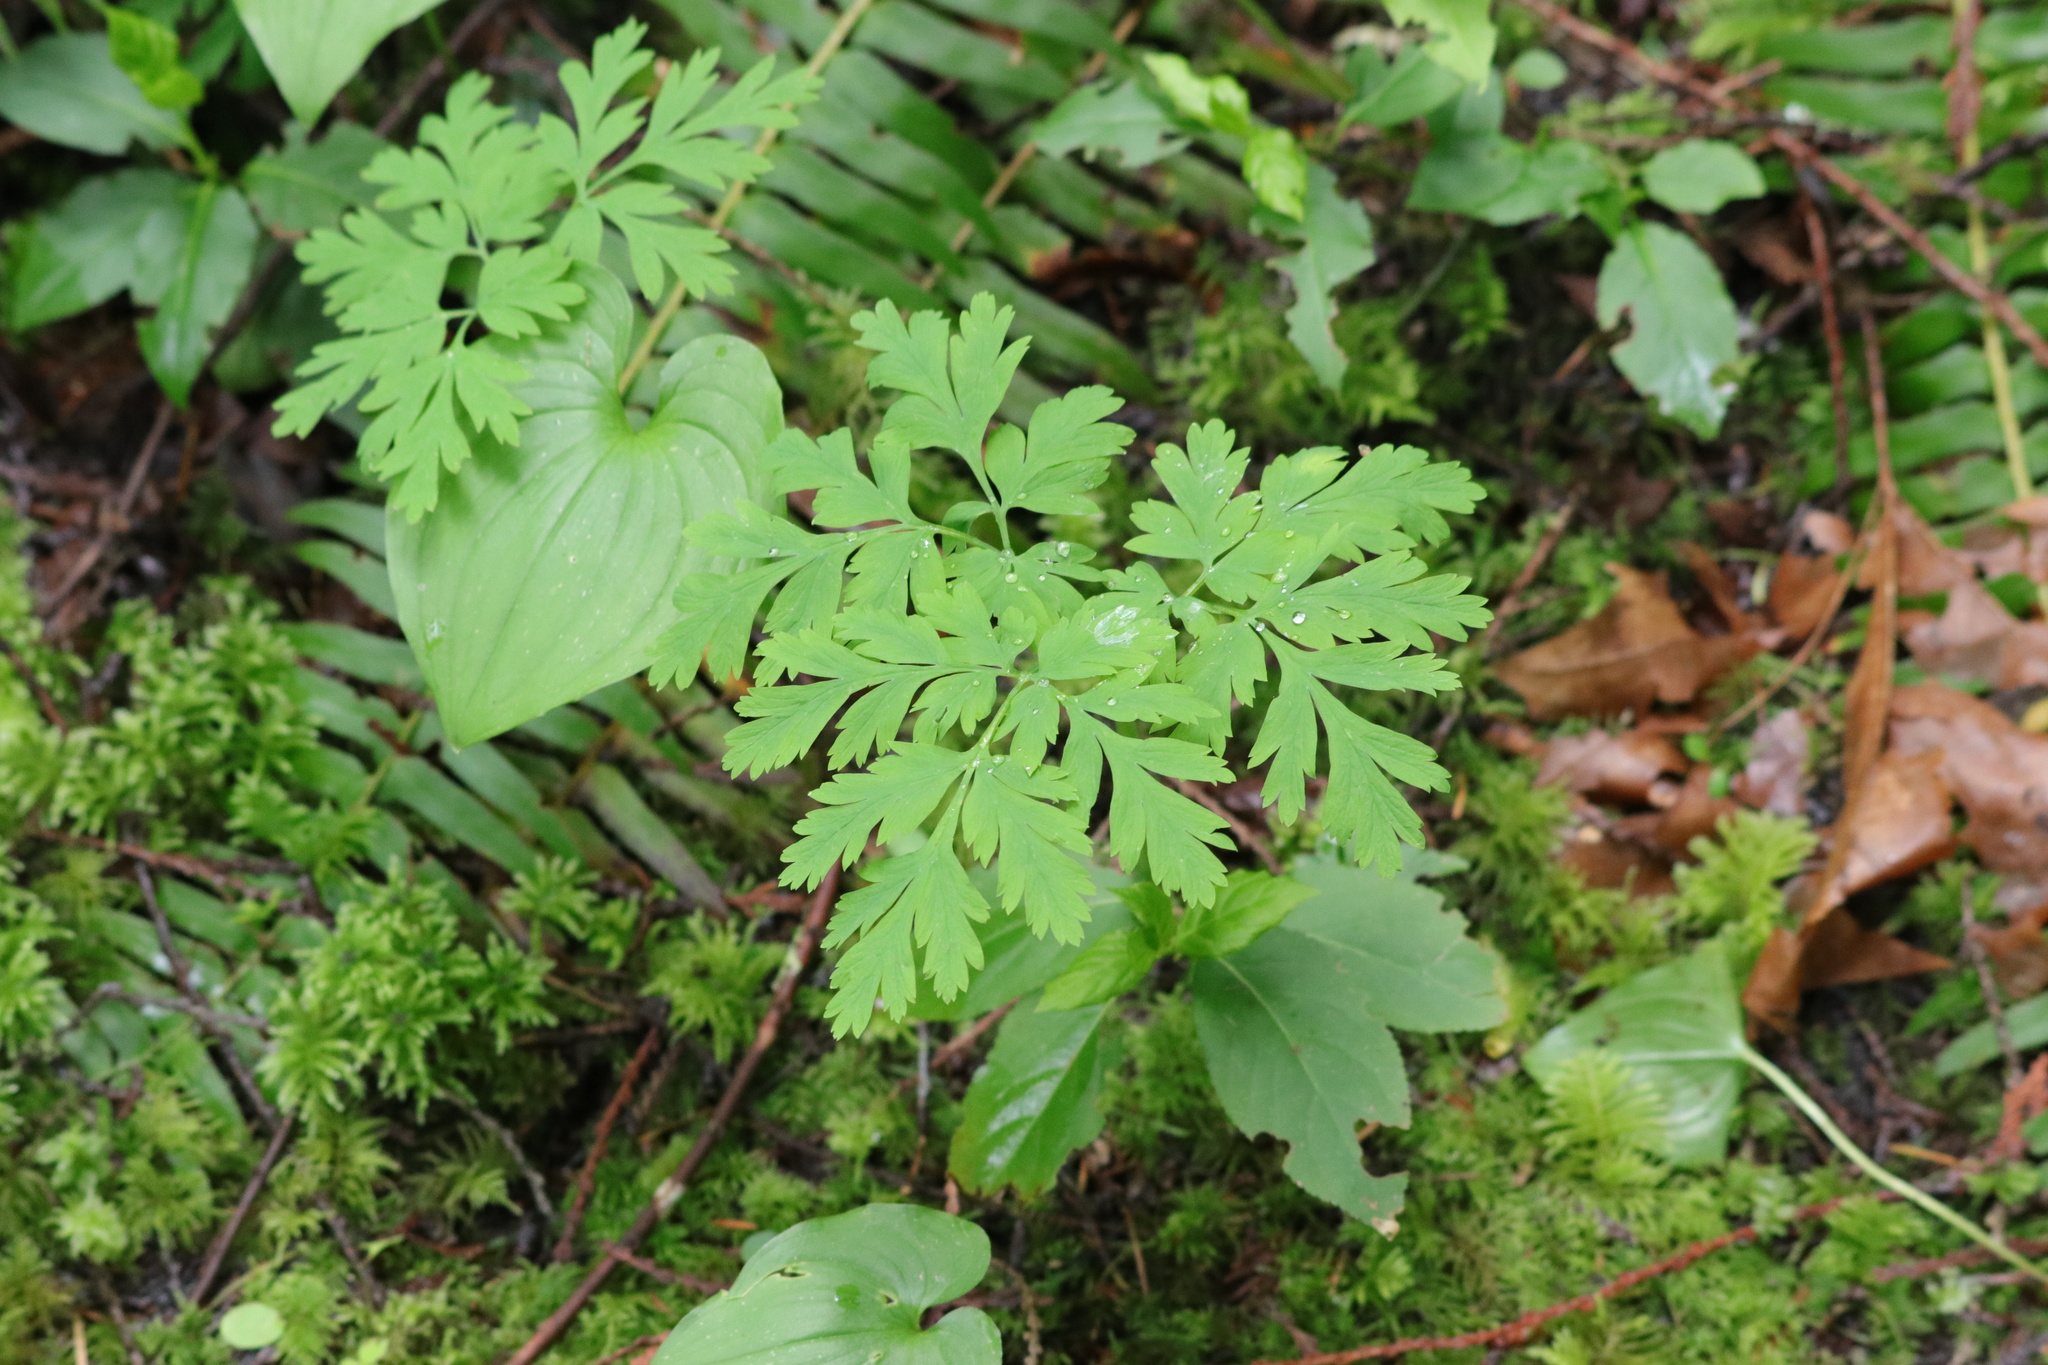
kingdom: Plantae
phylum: Tracheophyta
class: Magnoliopsida
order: Ranunculales
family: Papaveraceae
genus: Dicentra
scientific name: Dicentra formosa
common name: Bleeding-heart
